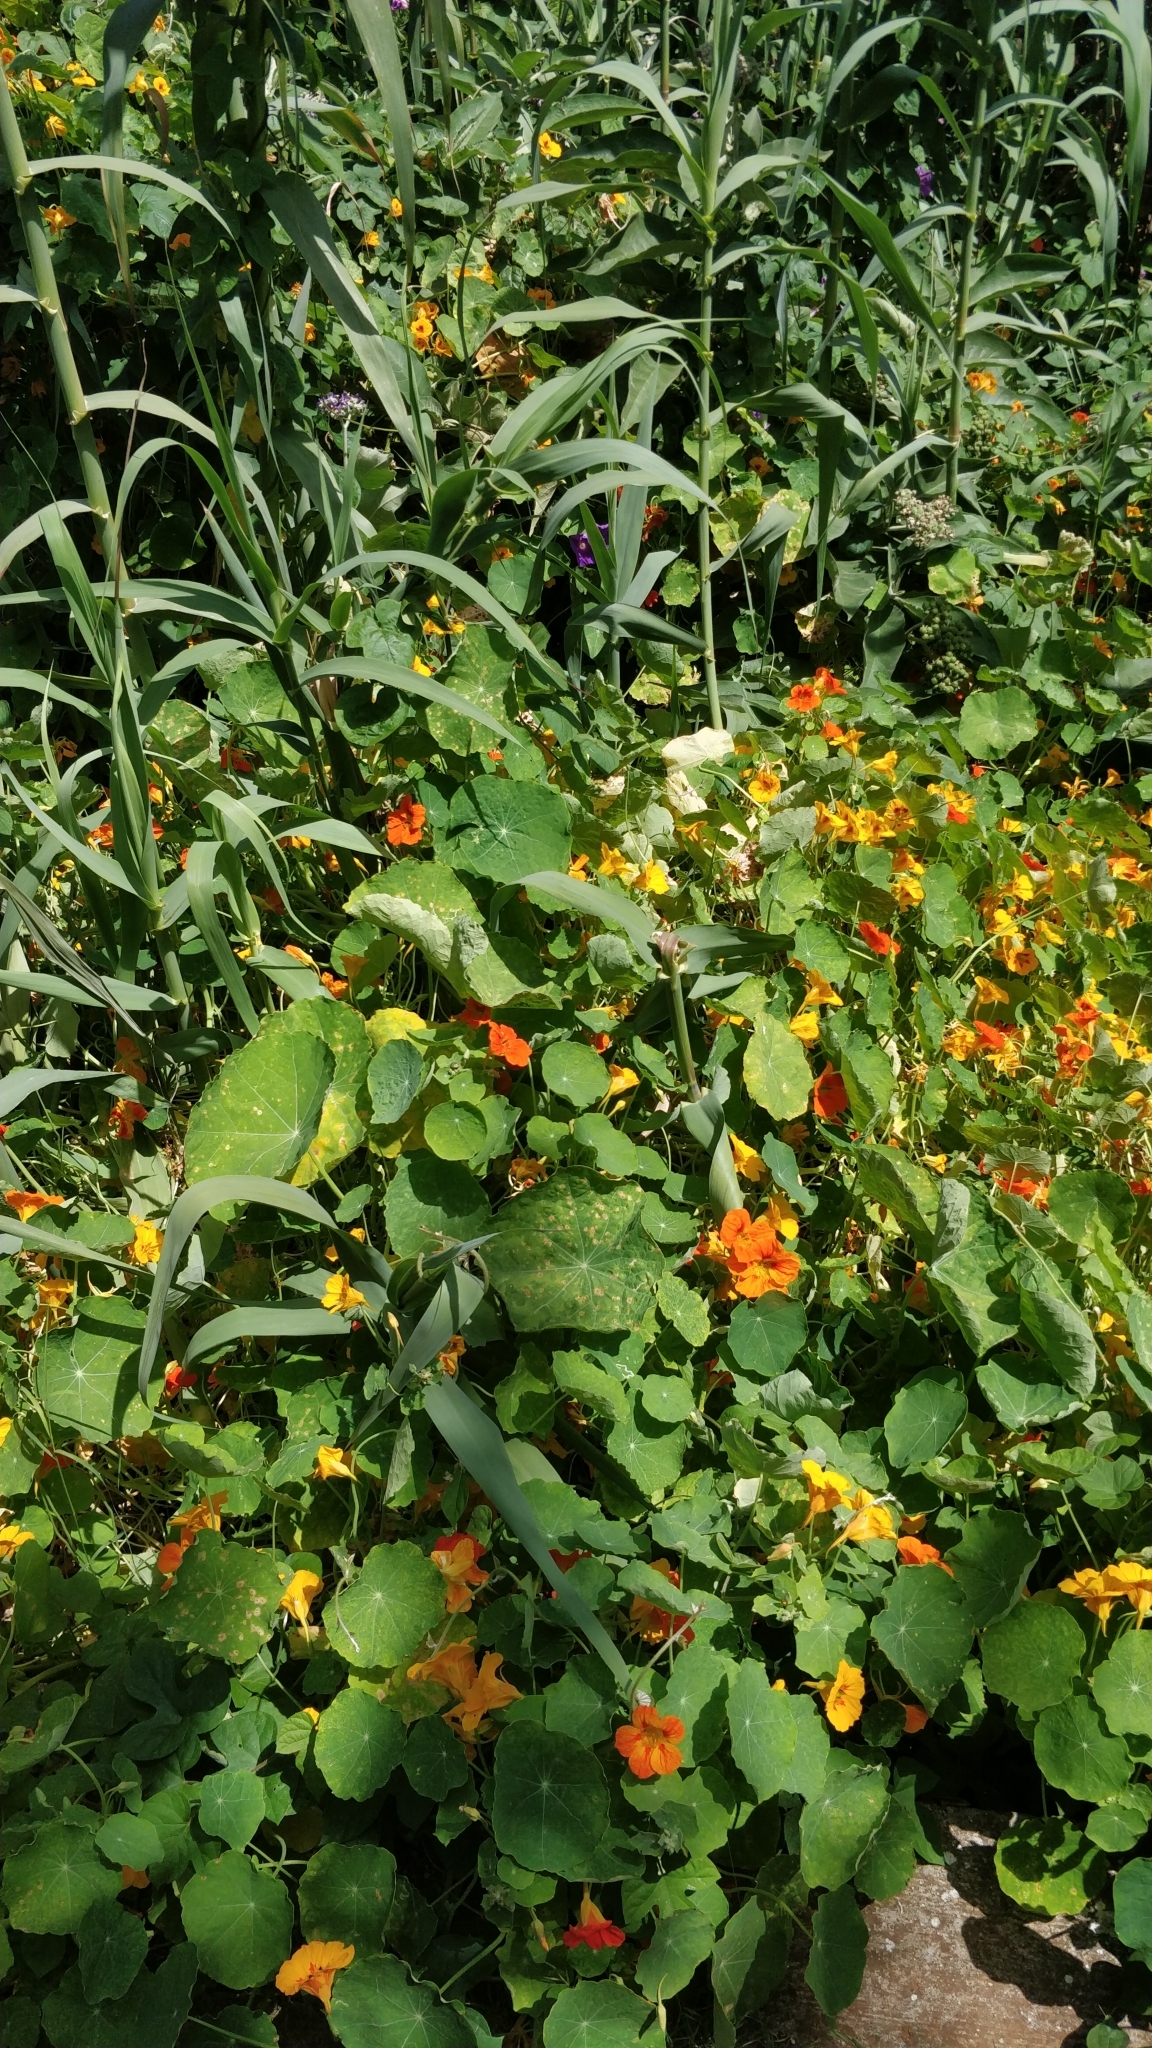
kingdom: Plantae
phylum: Tracheophyta
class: Magnoliopsida
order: Brassicales
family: Tropaeolaceae
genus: Tropaeolum
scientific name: Tropaeolum majus
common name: Nasturtium
